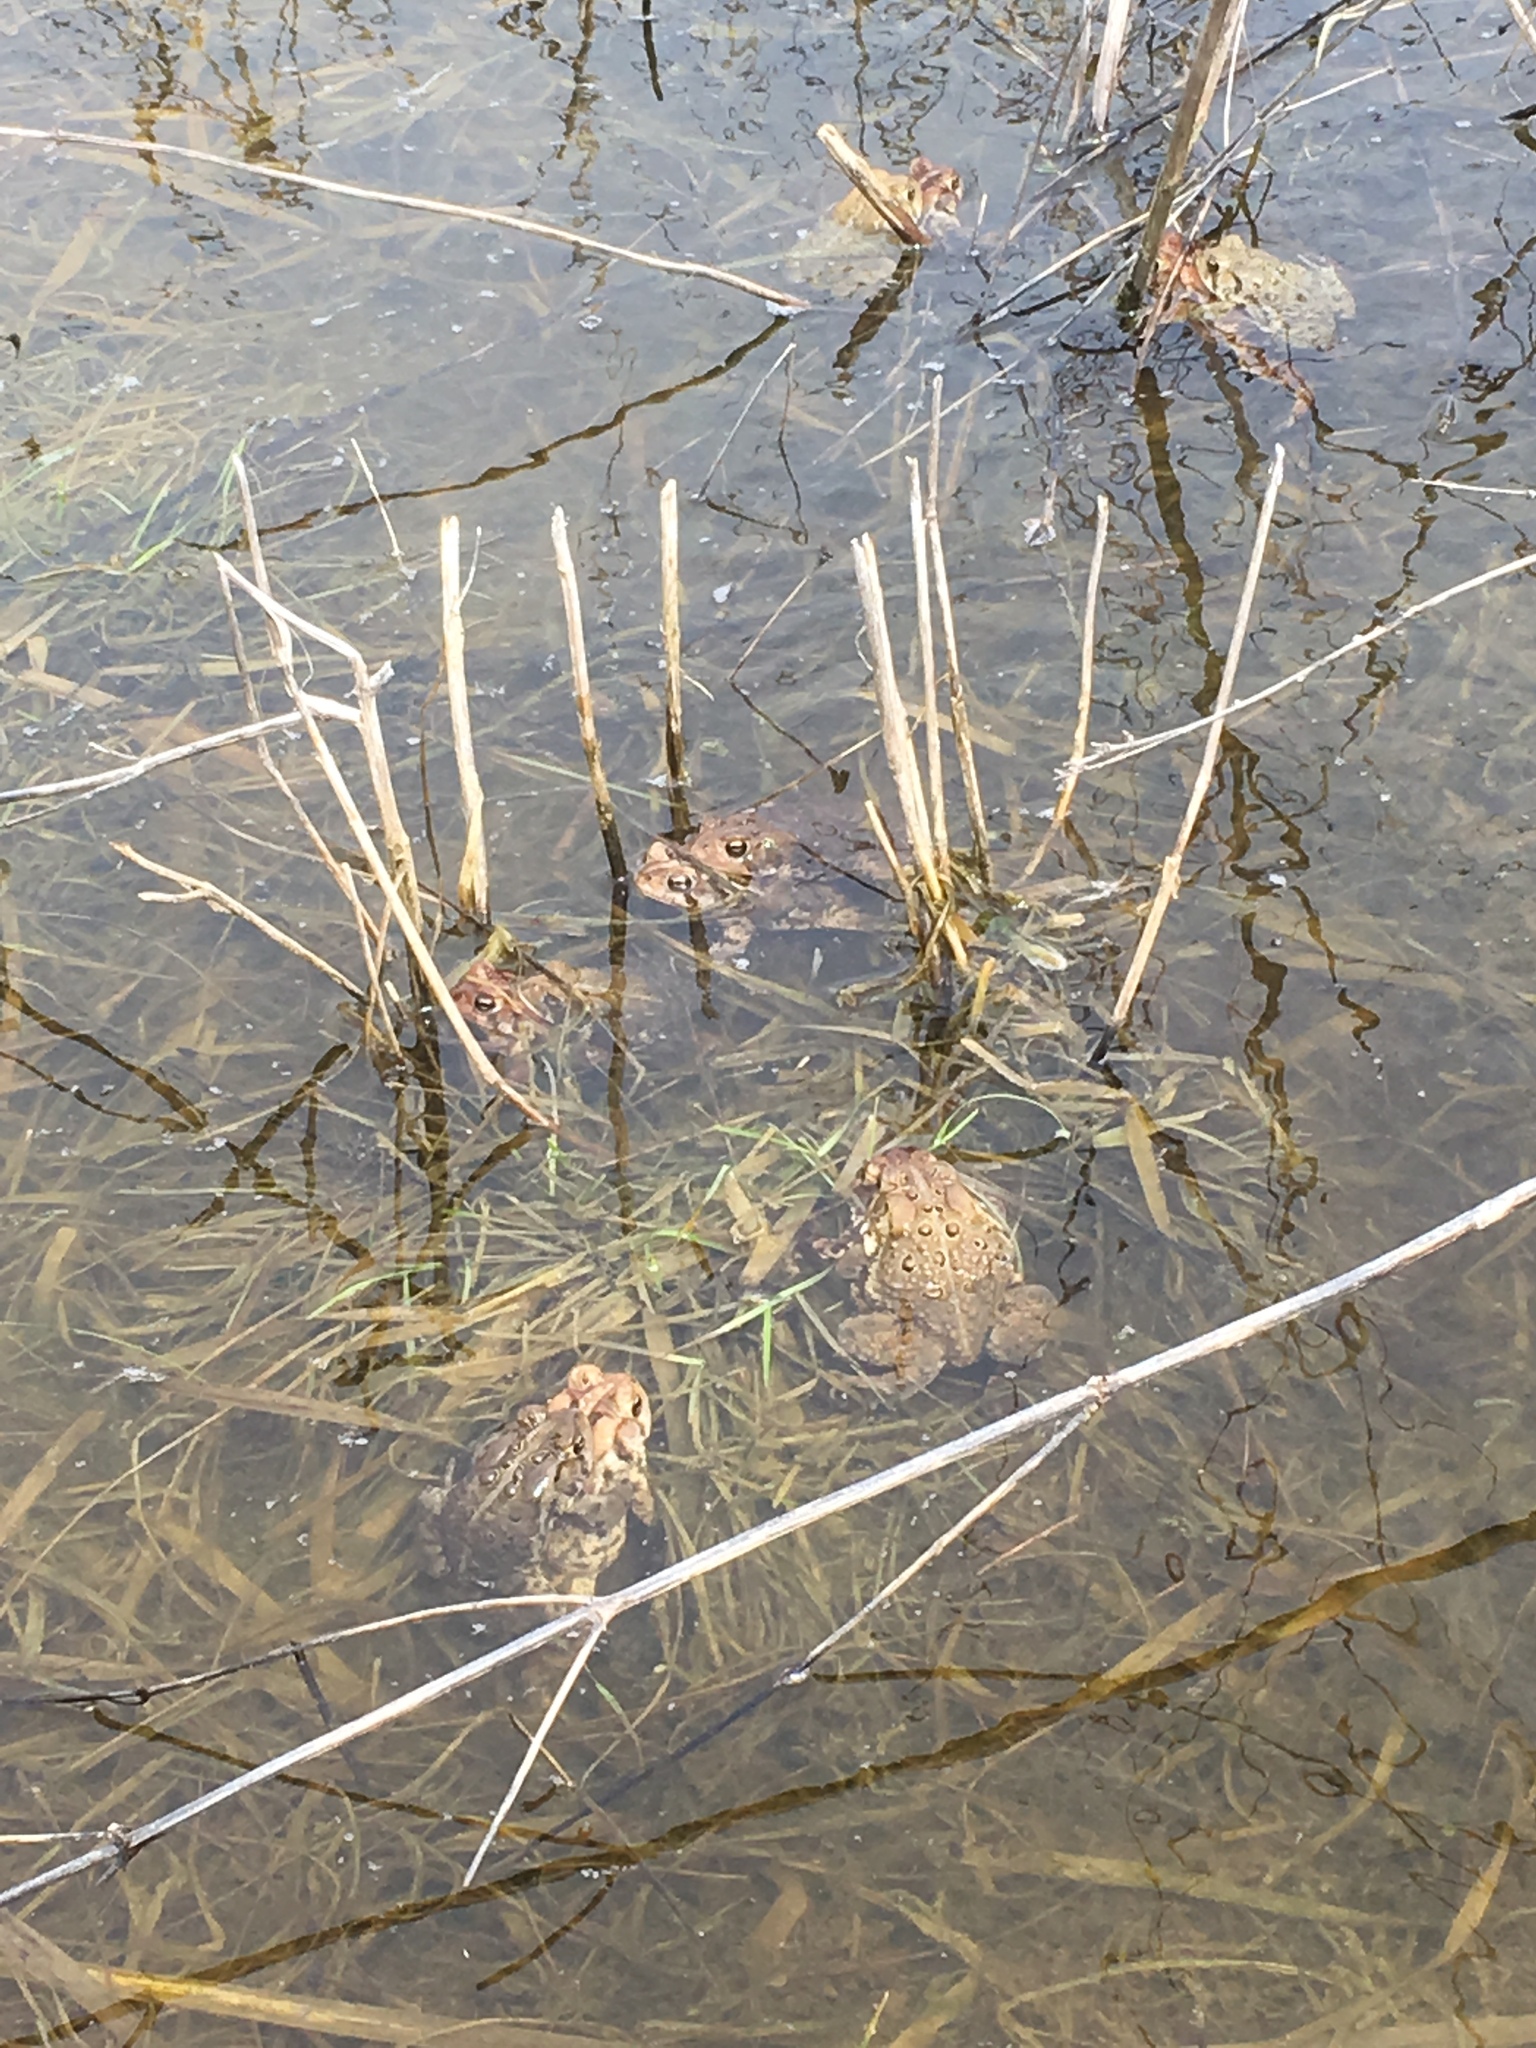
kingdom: Animalia
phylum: Chordata
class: Amphibia
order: Anura
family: Bufonidae
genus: Anaxyrus
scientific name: Anaxyrus americanus
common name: American toad
